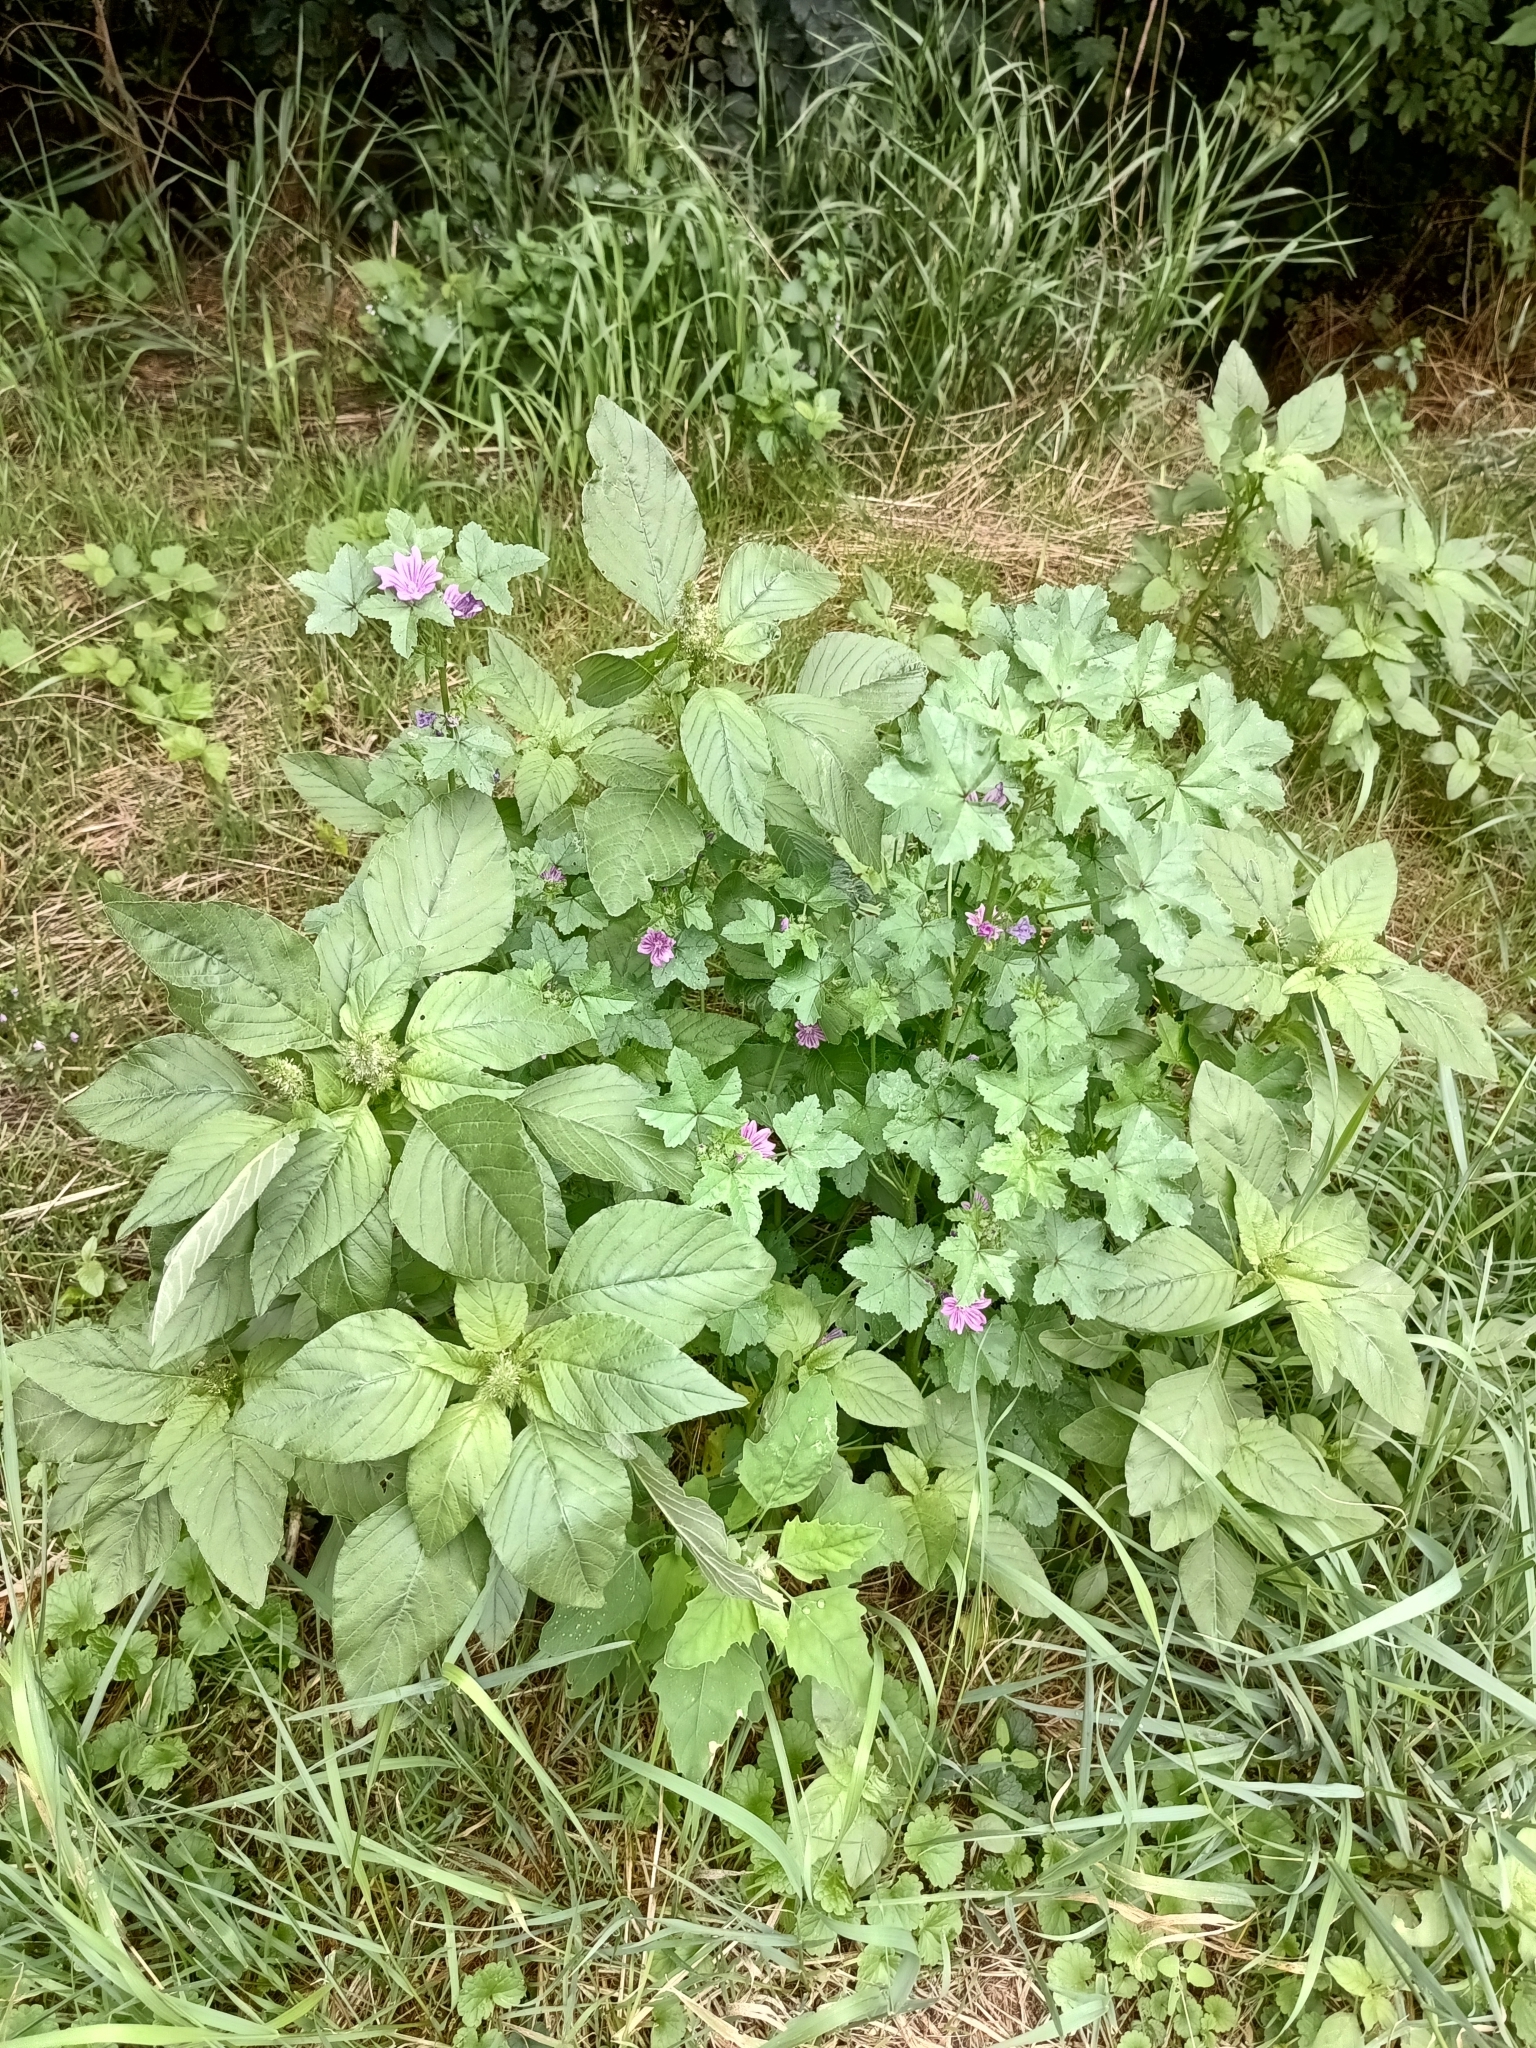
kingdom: Plantae
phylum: Tracheophyta
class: Magnoliopsida
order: Malvales
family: Malvaceae
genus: Malva
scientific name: Malva sylvestris
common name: Common mallow
